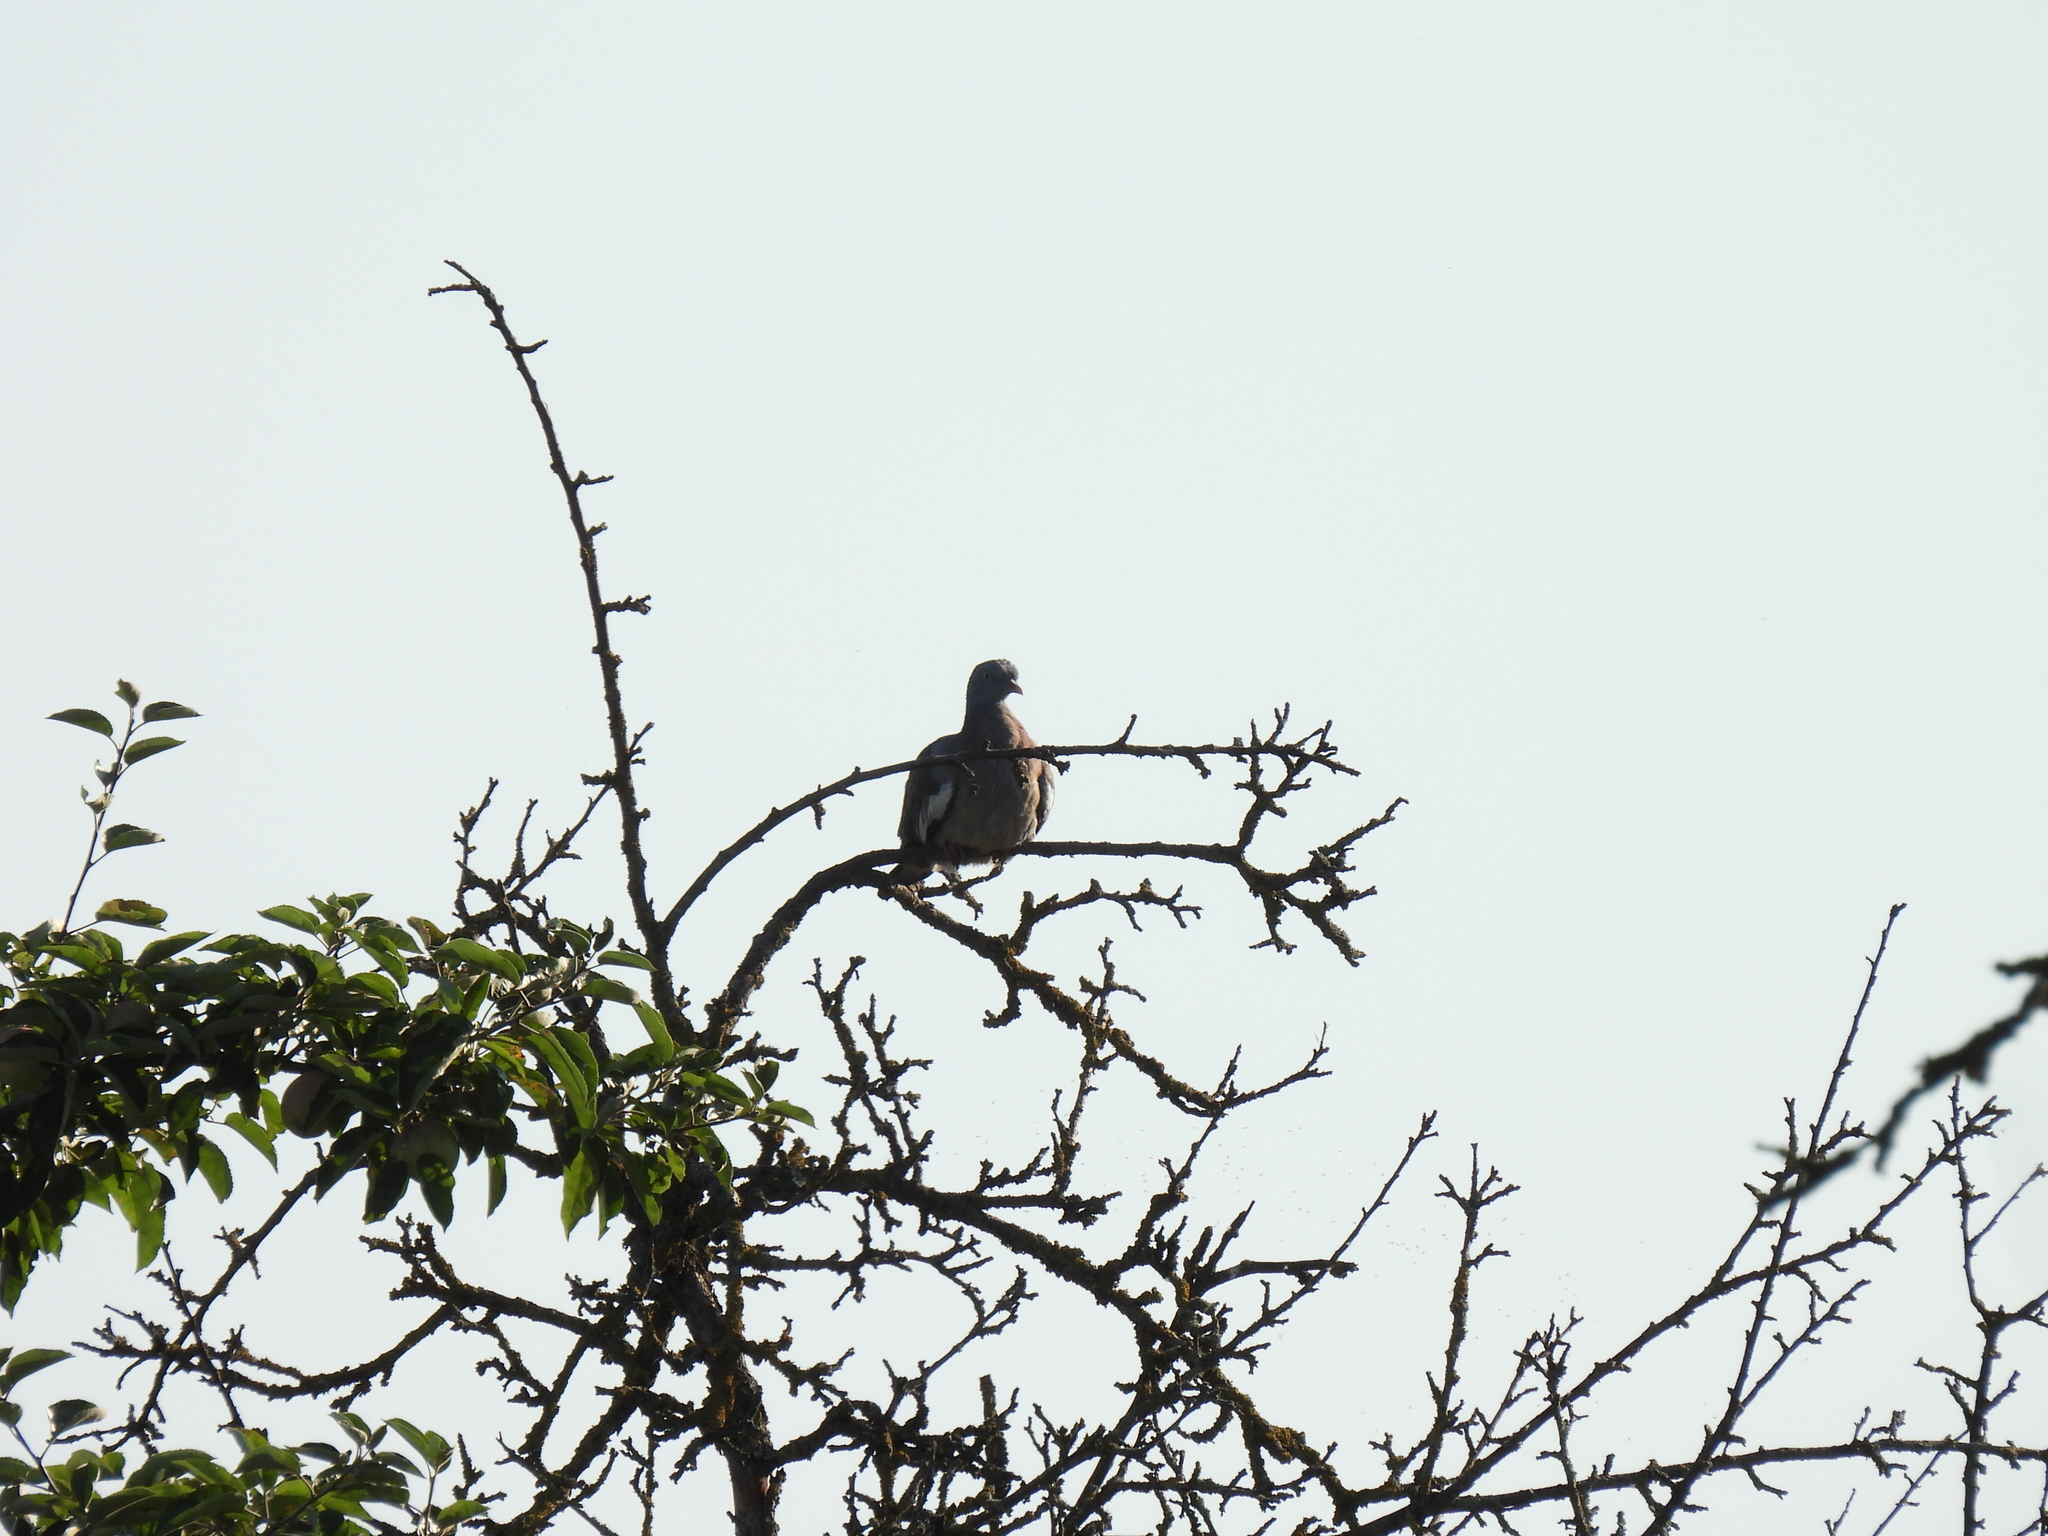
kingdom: Animalia
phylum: Chordata
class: Aves
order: Columbiformes
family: Columbidae
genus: Columba
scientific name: Columba palumbus
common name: Common wood pigeon
